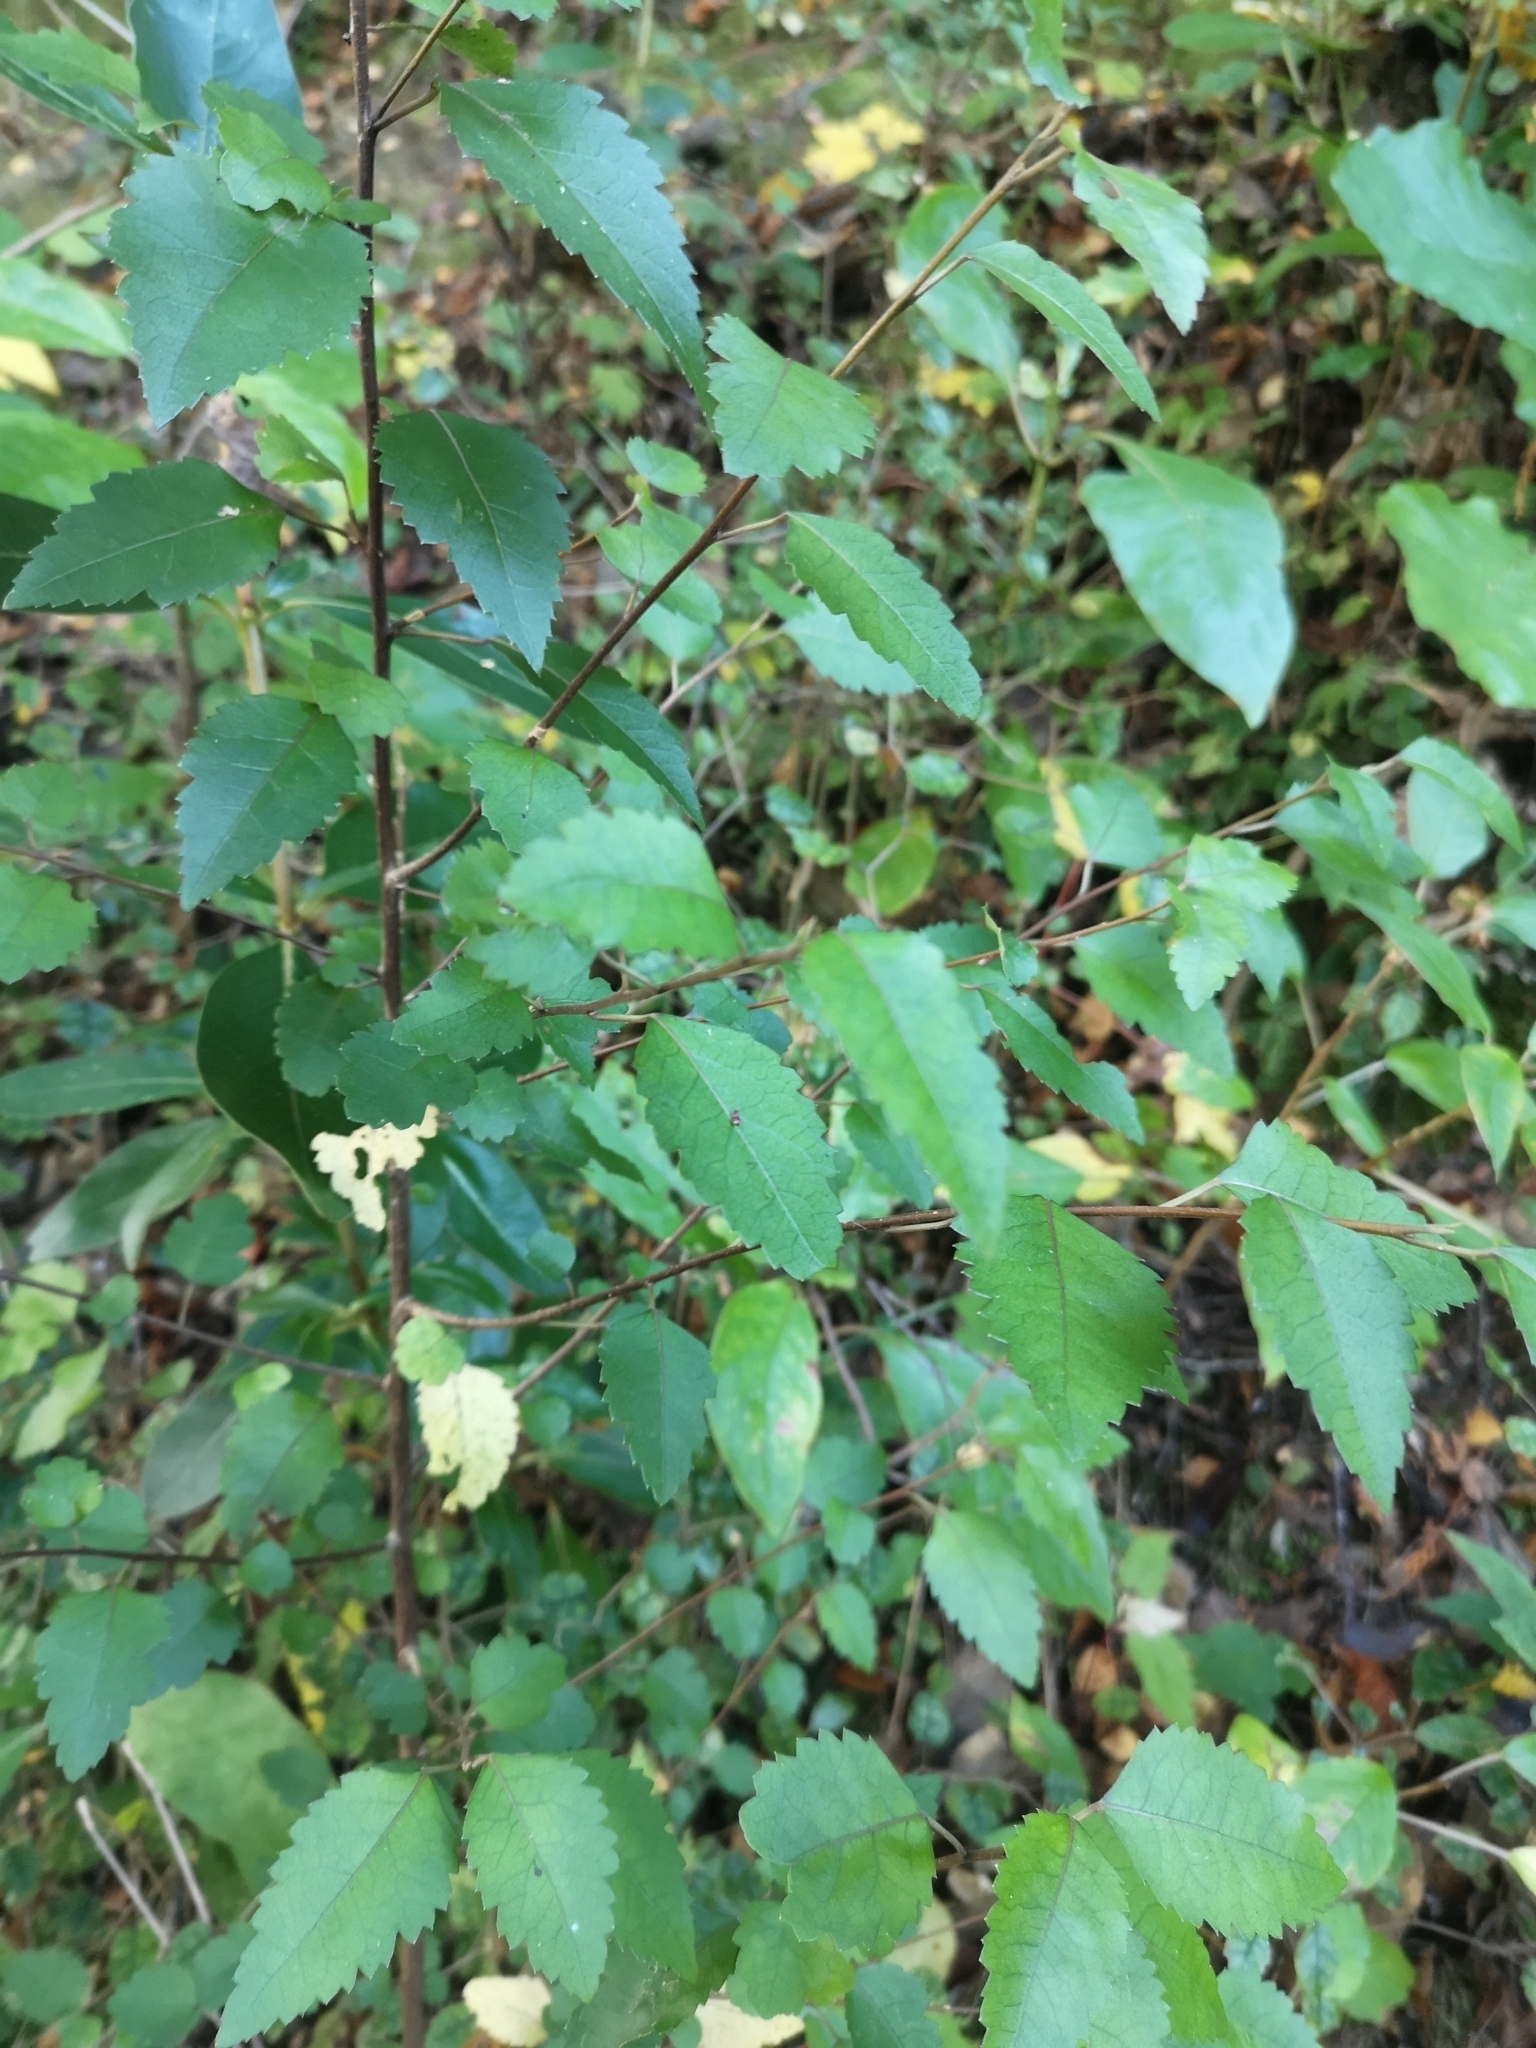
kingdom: Plantae
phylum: Tracheophyta
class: Magnoliopsida
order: Malvales
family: Malvaceae
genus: Hoheria
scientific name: Hoheria sexstylosa
